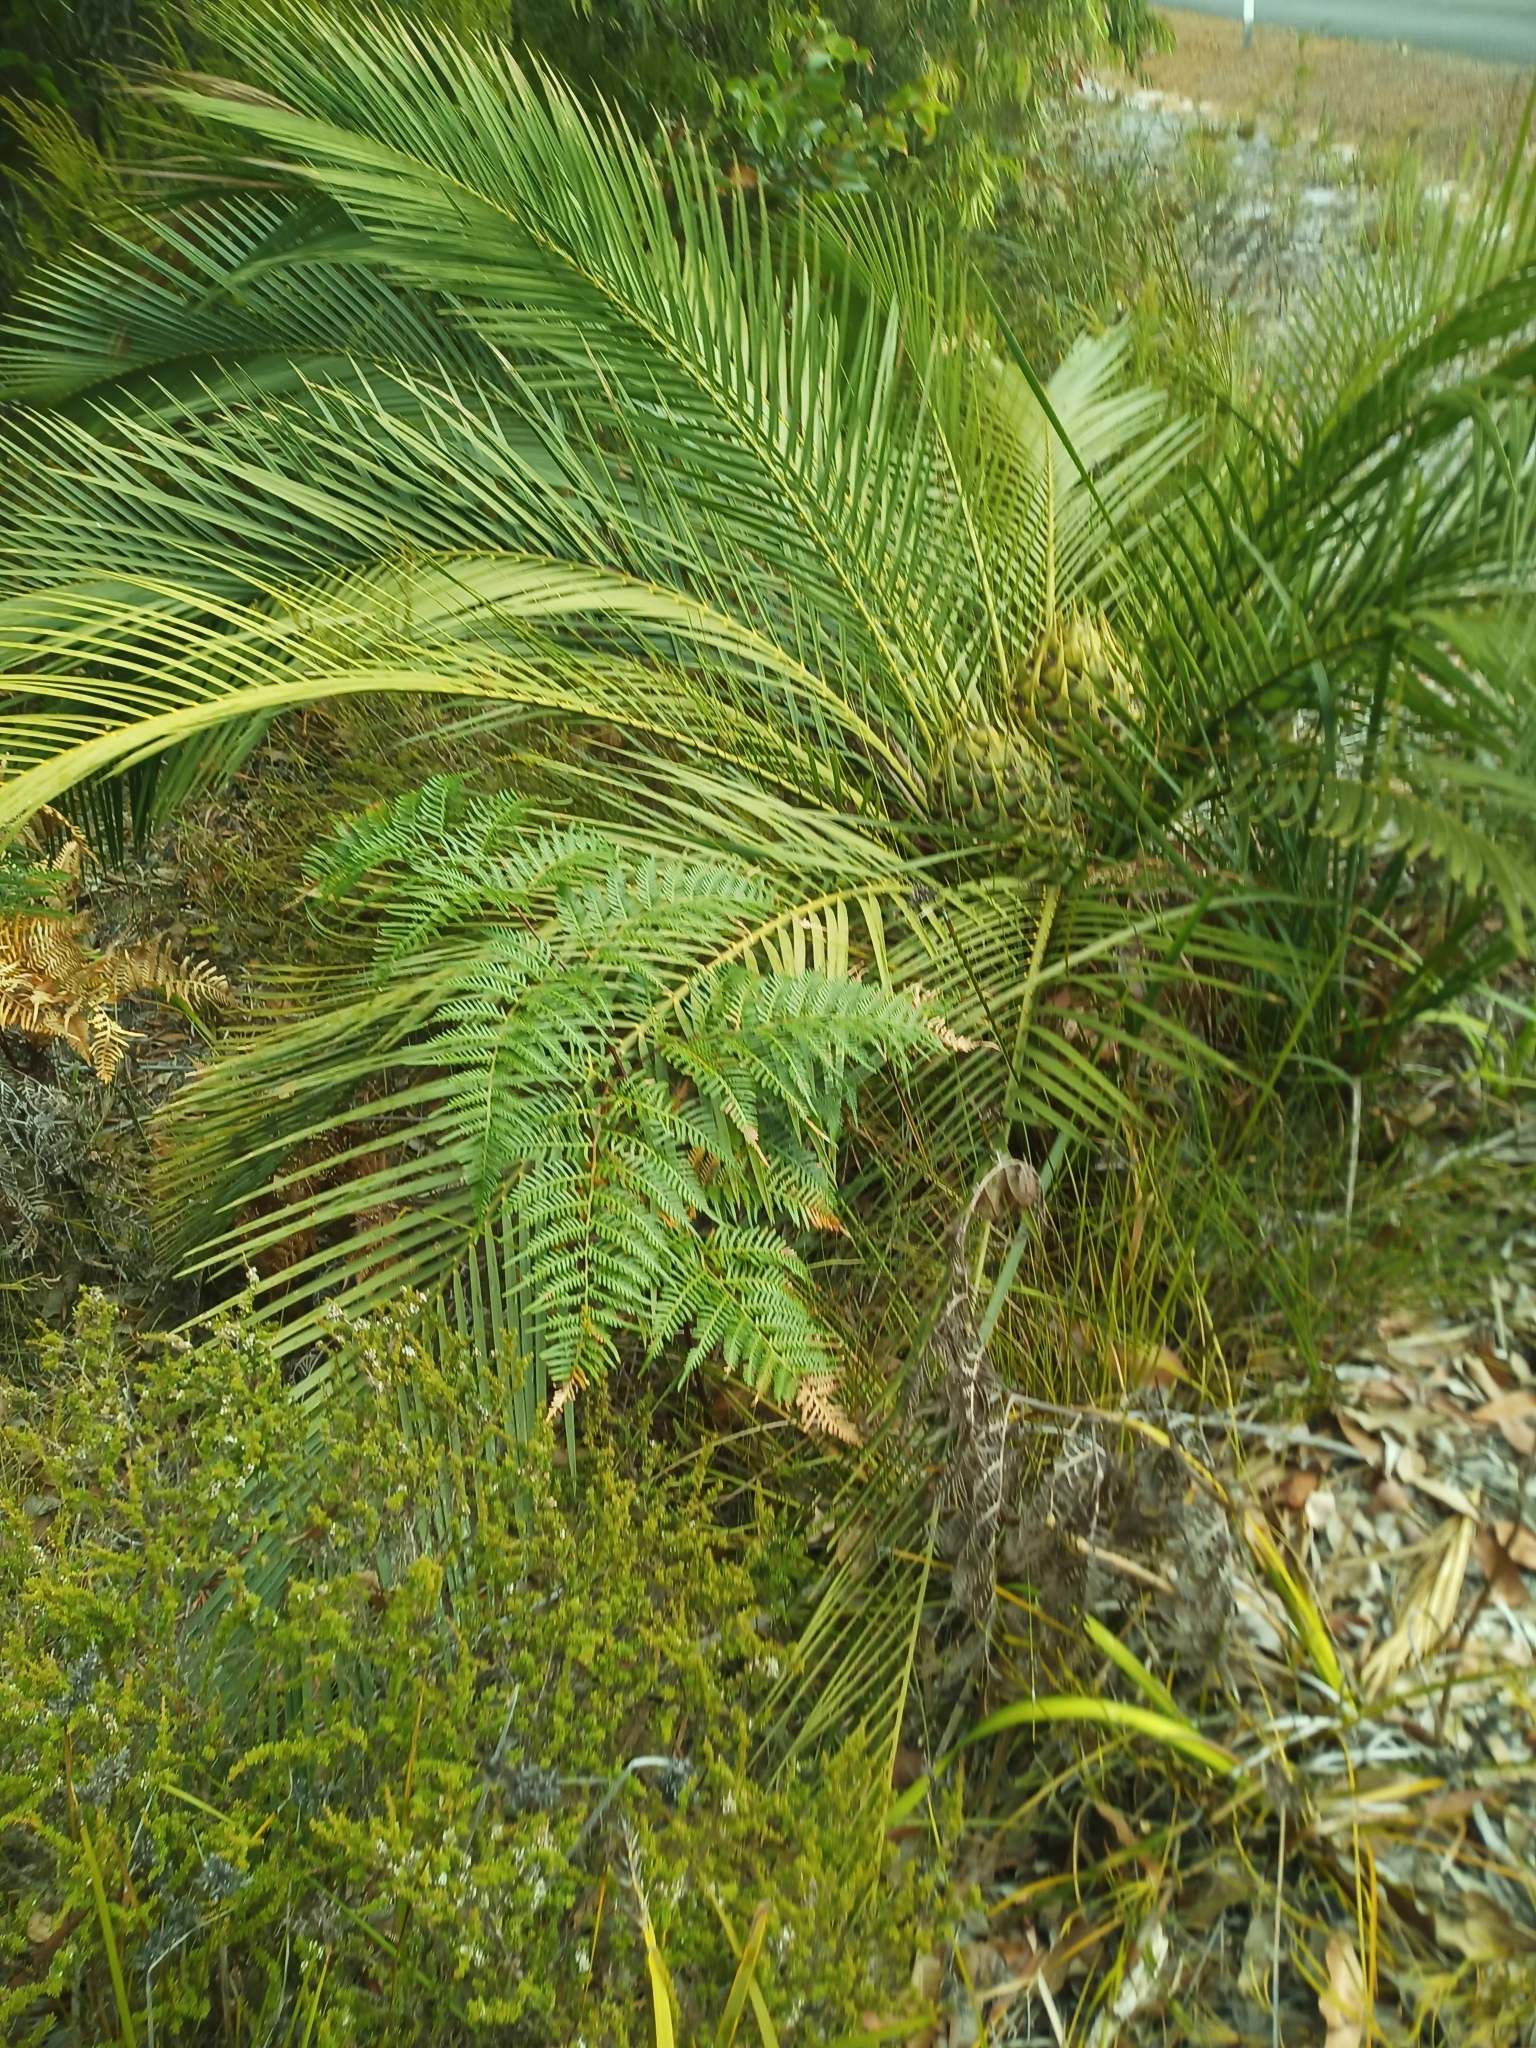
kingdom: Plantae
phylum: Tracheophyta
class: Cycadopsida
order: Cycadales
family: Zamiaceae
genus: Macrozamia
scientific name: Macrozamia riedlei
